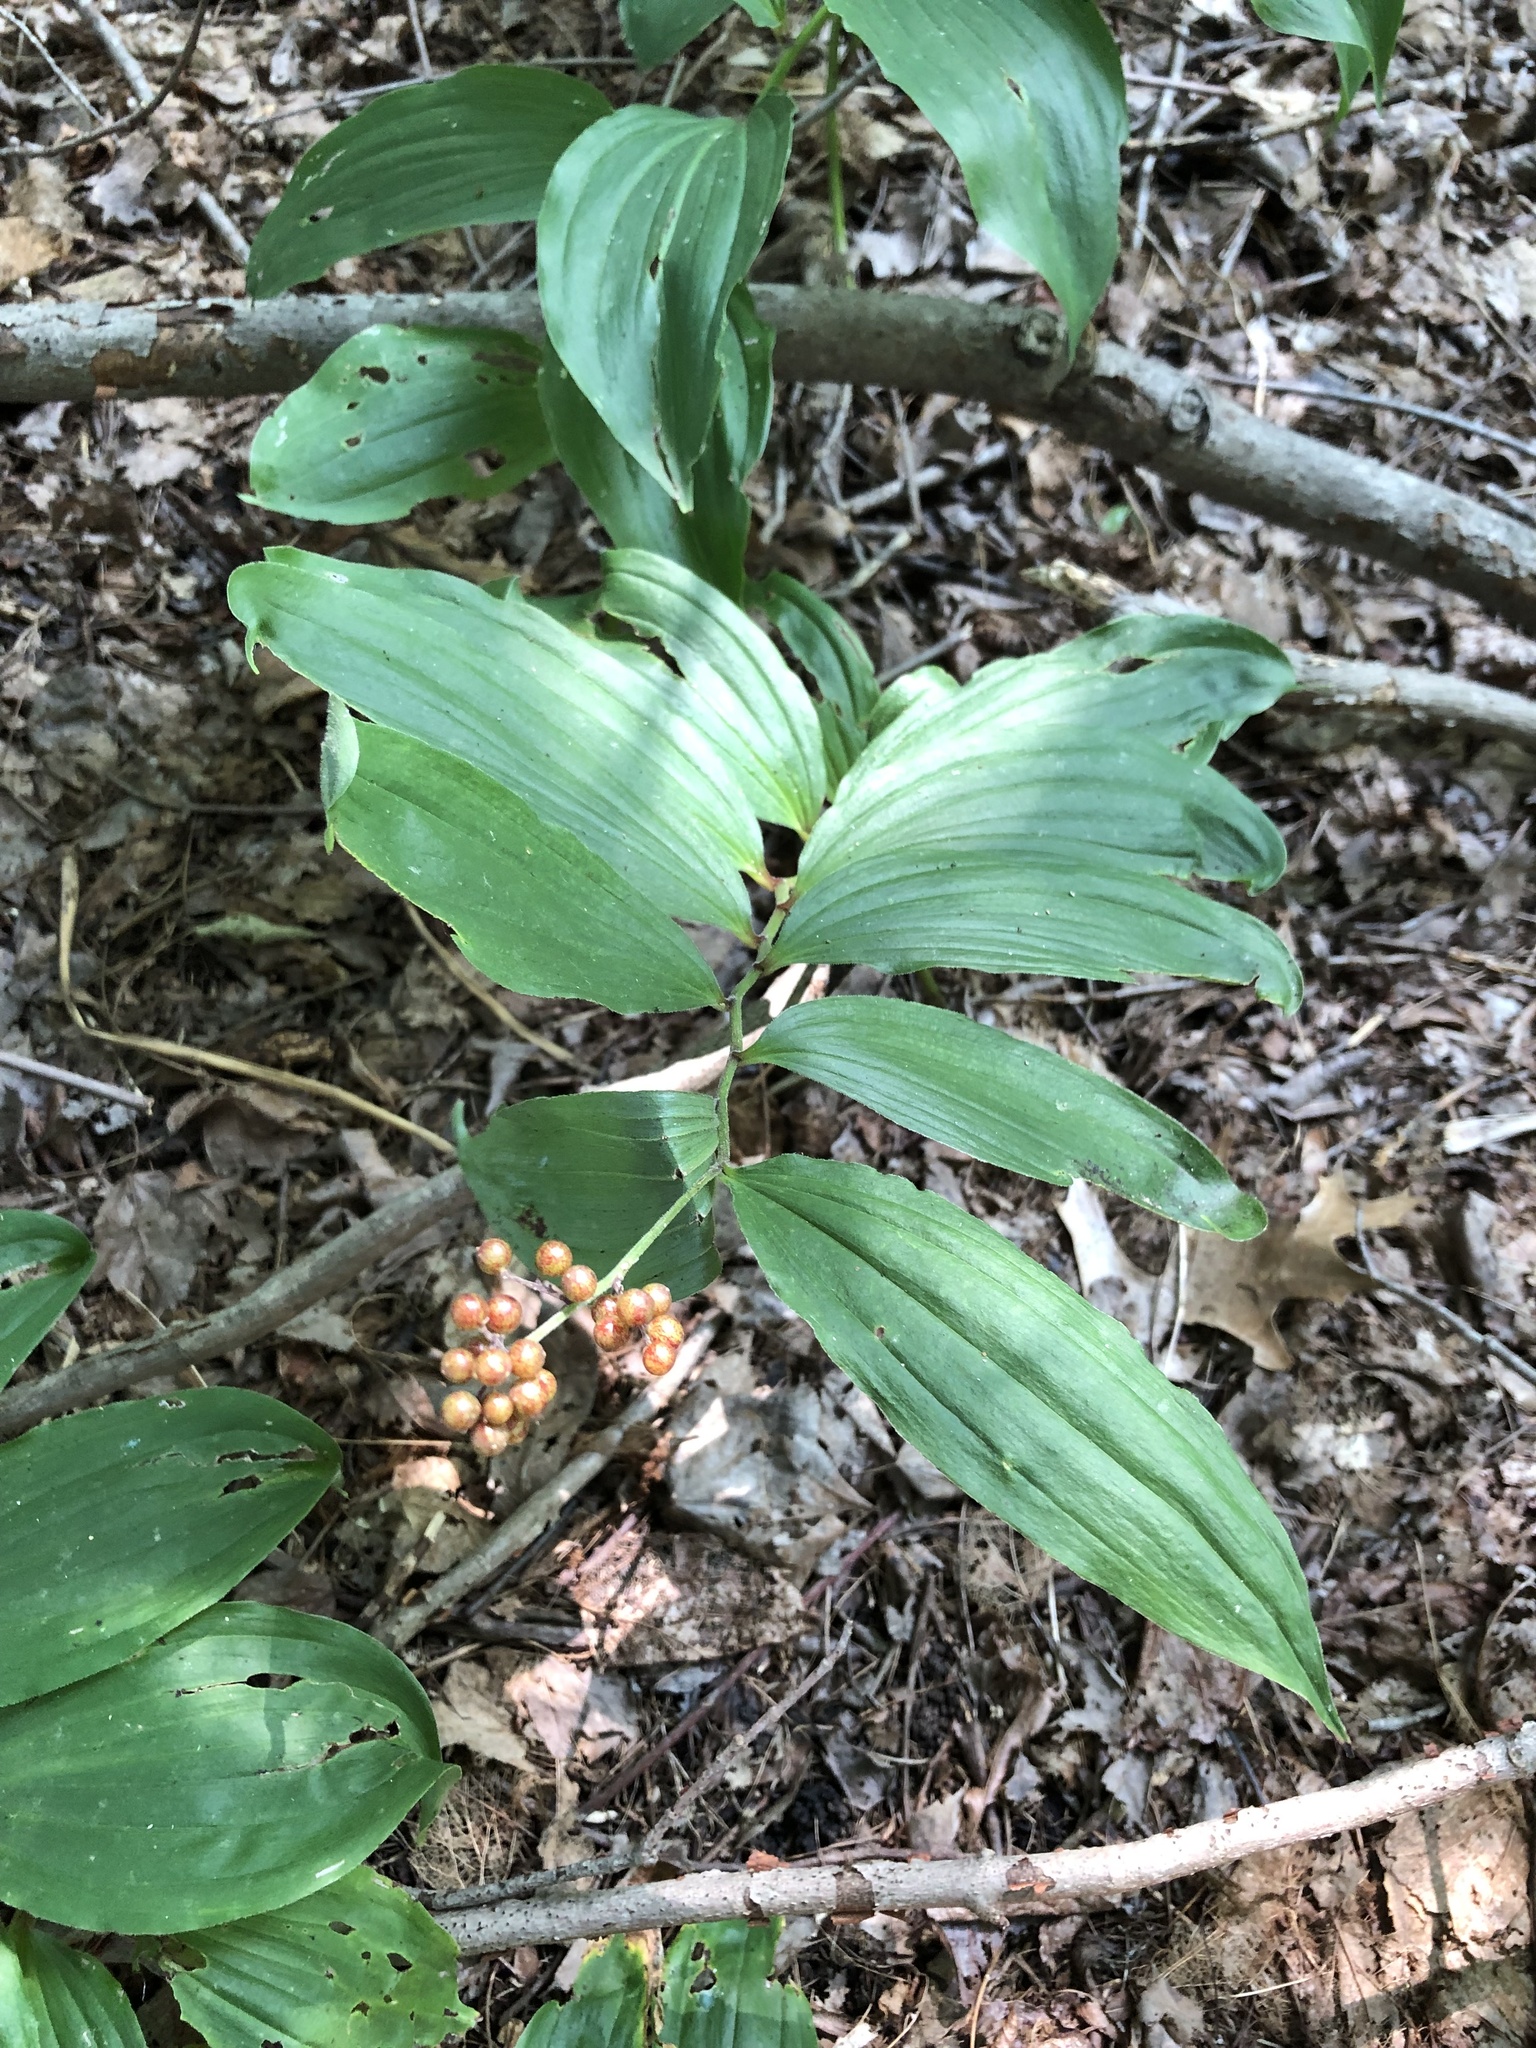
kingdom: Plantae
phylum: Tracheophyta
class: Liliopsida
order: Asparagales
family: Asparagaceae
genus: Maianthemum
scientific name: Maianthemum racemosum
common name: False spikenard
